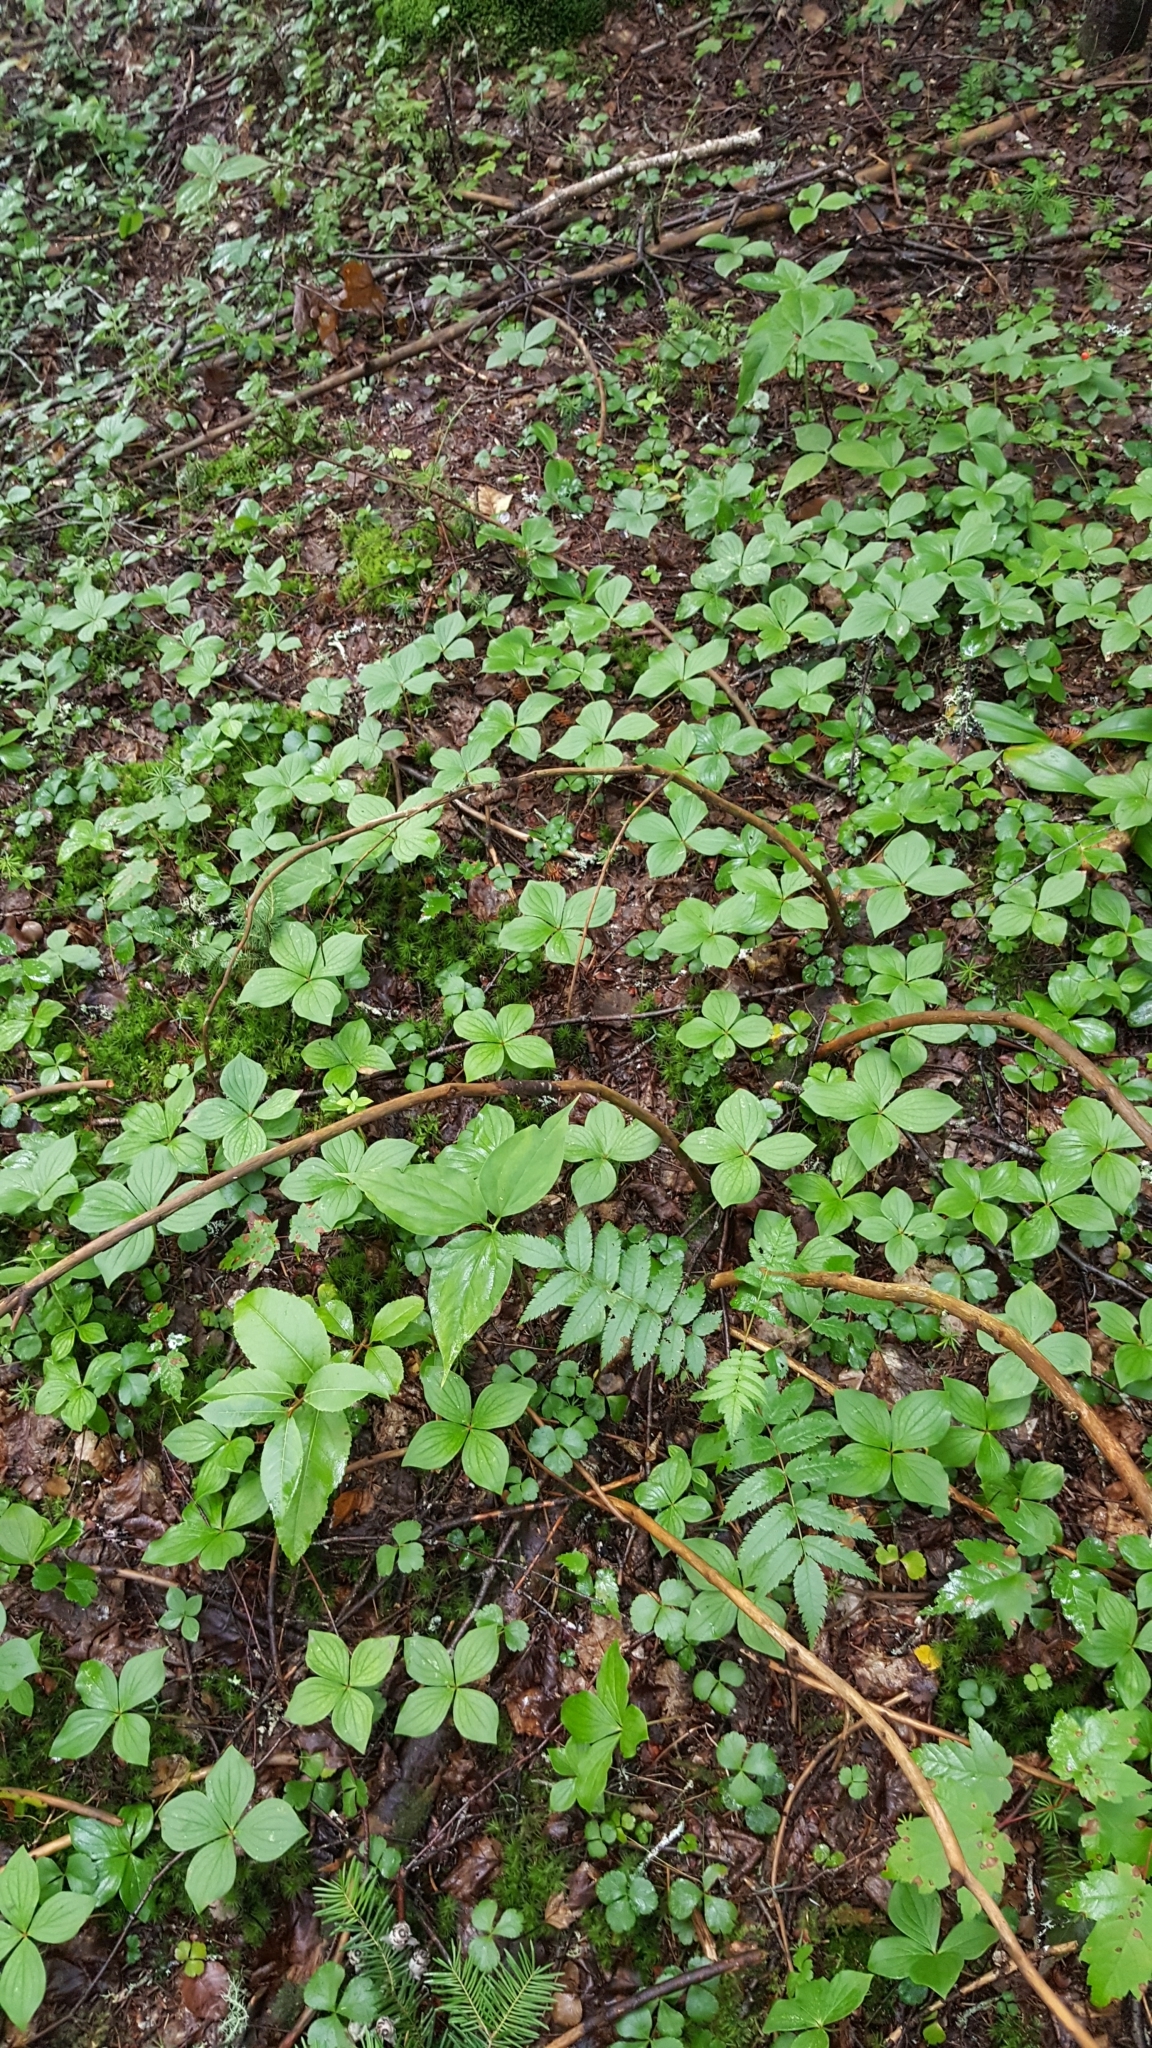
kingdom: Plantae
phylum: Tracheophyta
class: Magnoliopsida
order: Cornales
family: Cornaceae
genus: Cornus
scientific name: Cornus canadensis
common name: Creeping dogwood
